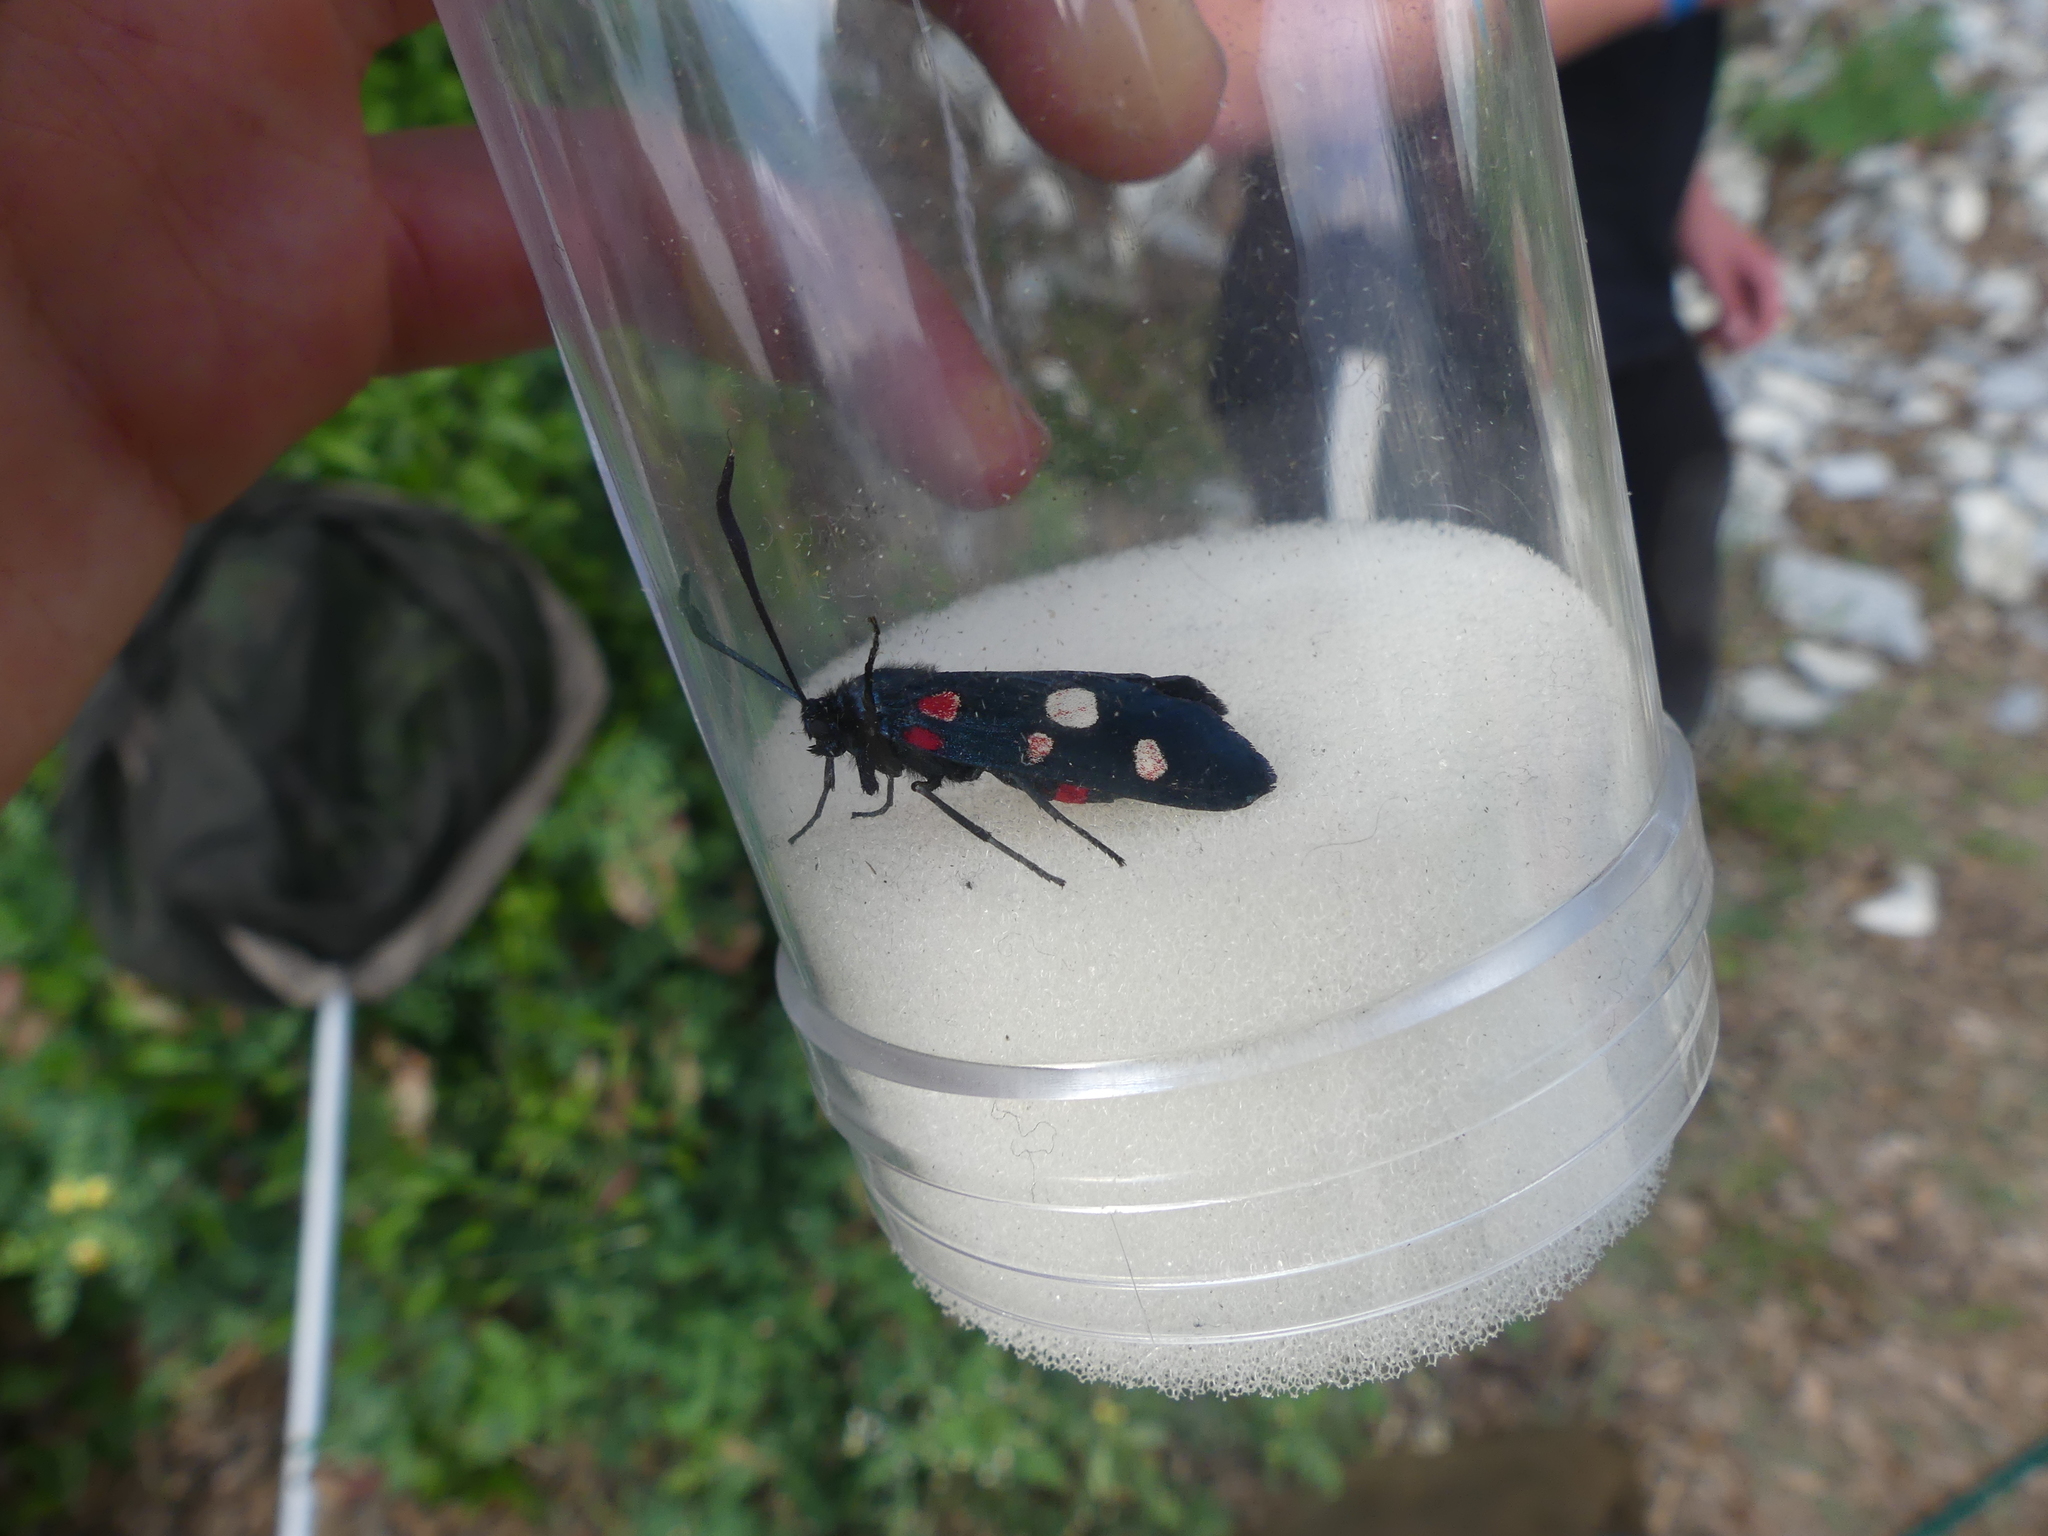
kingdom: Animalia
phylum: Arthropoda
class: Insecta
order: Lepidoptera
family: Zygaenidae
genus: Zygaena
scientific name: Zygaena ephialtes
